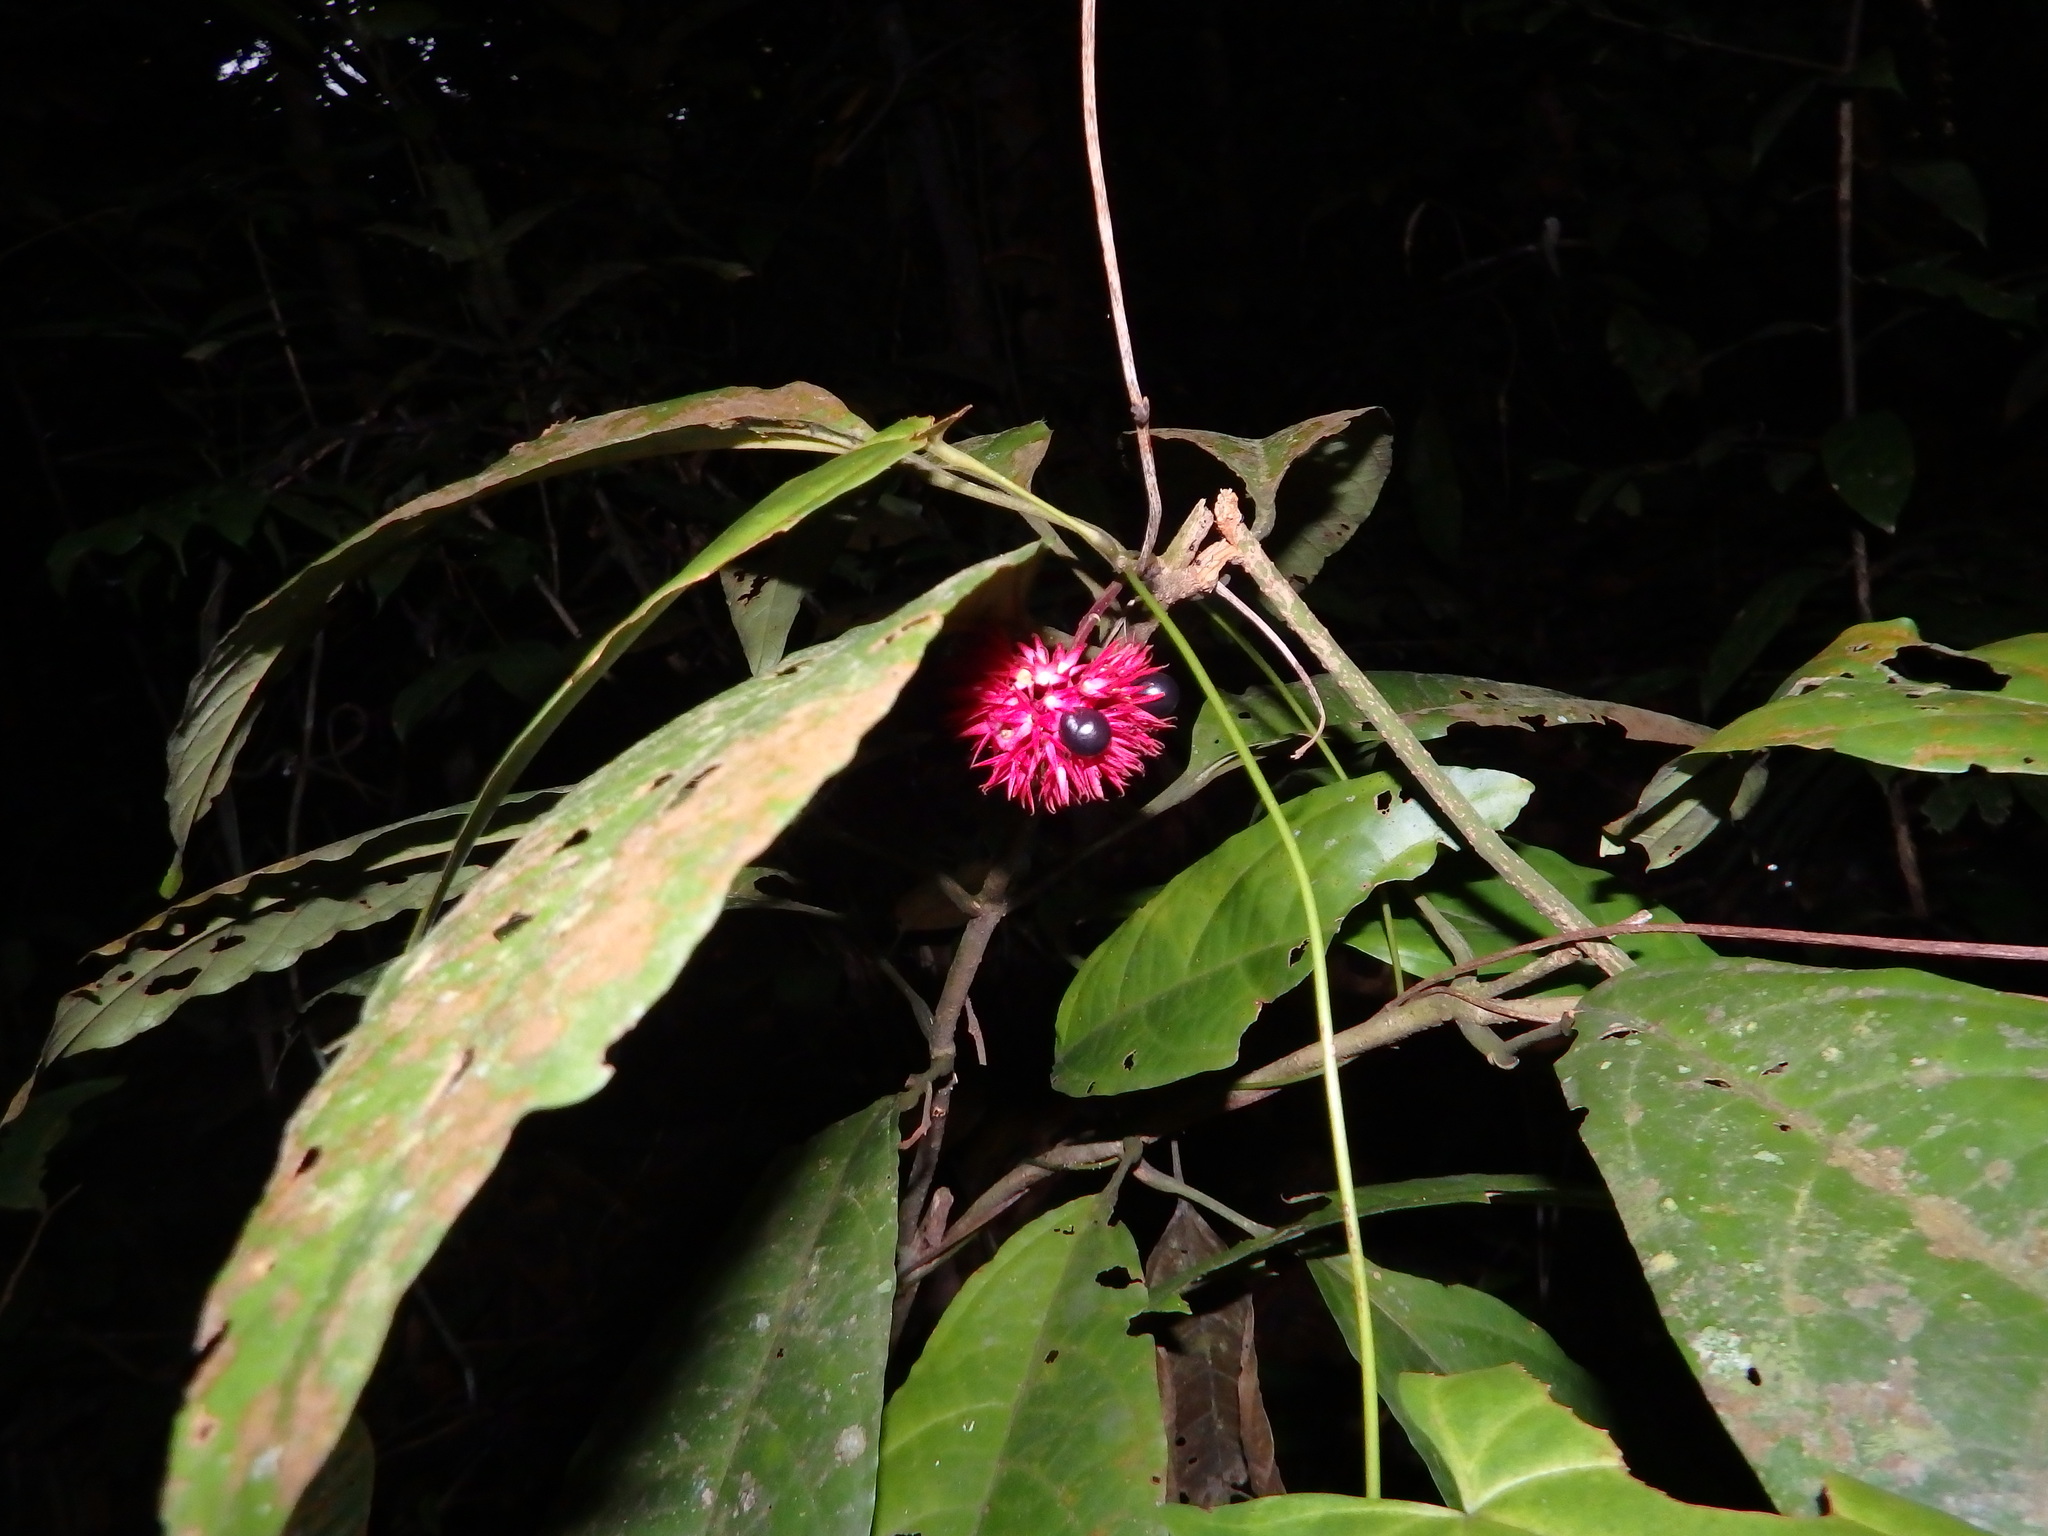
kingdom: Plantae
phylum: Tracheophyta
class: Magnoliopsida
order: Lamiales
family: Lamiaceae
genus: Clerodendrum
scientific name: Clerodendrum deflexum
